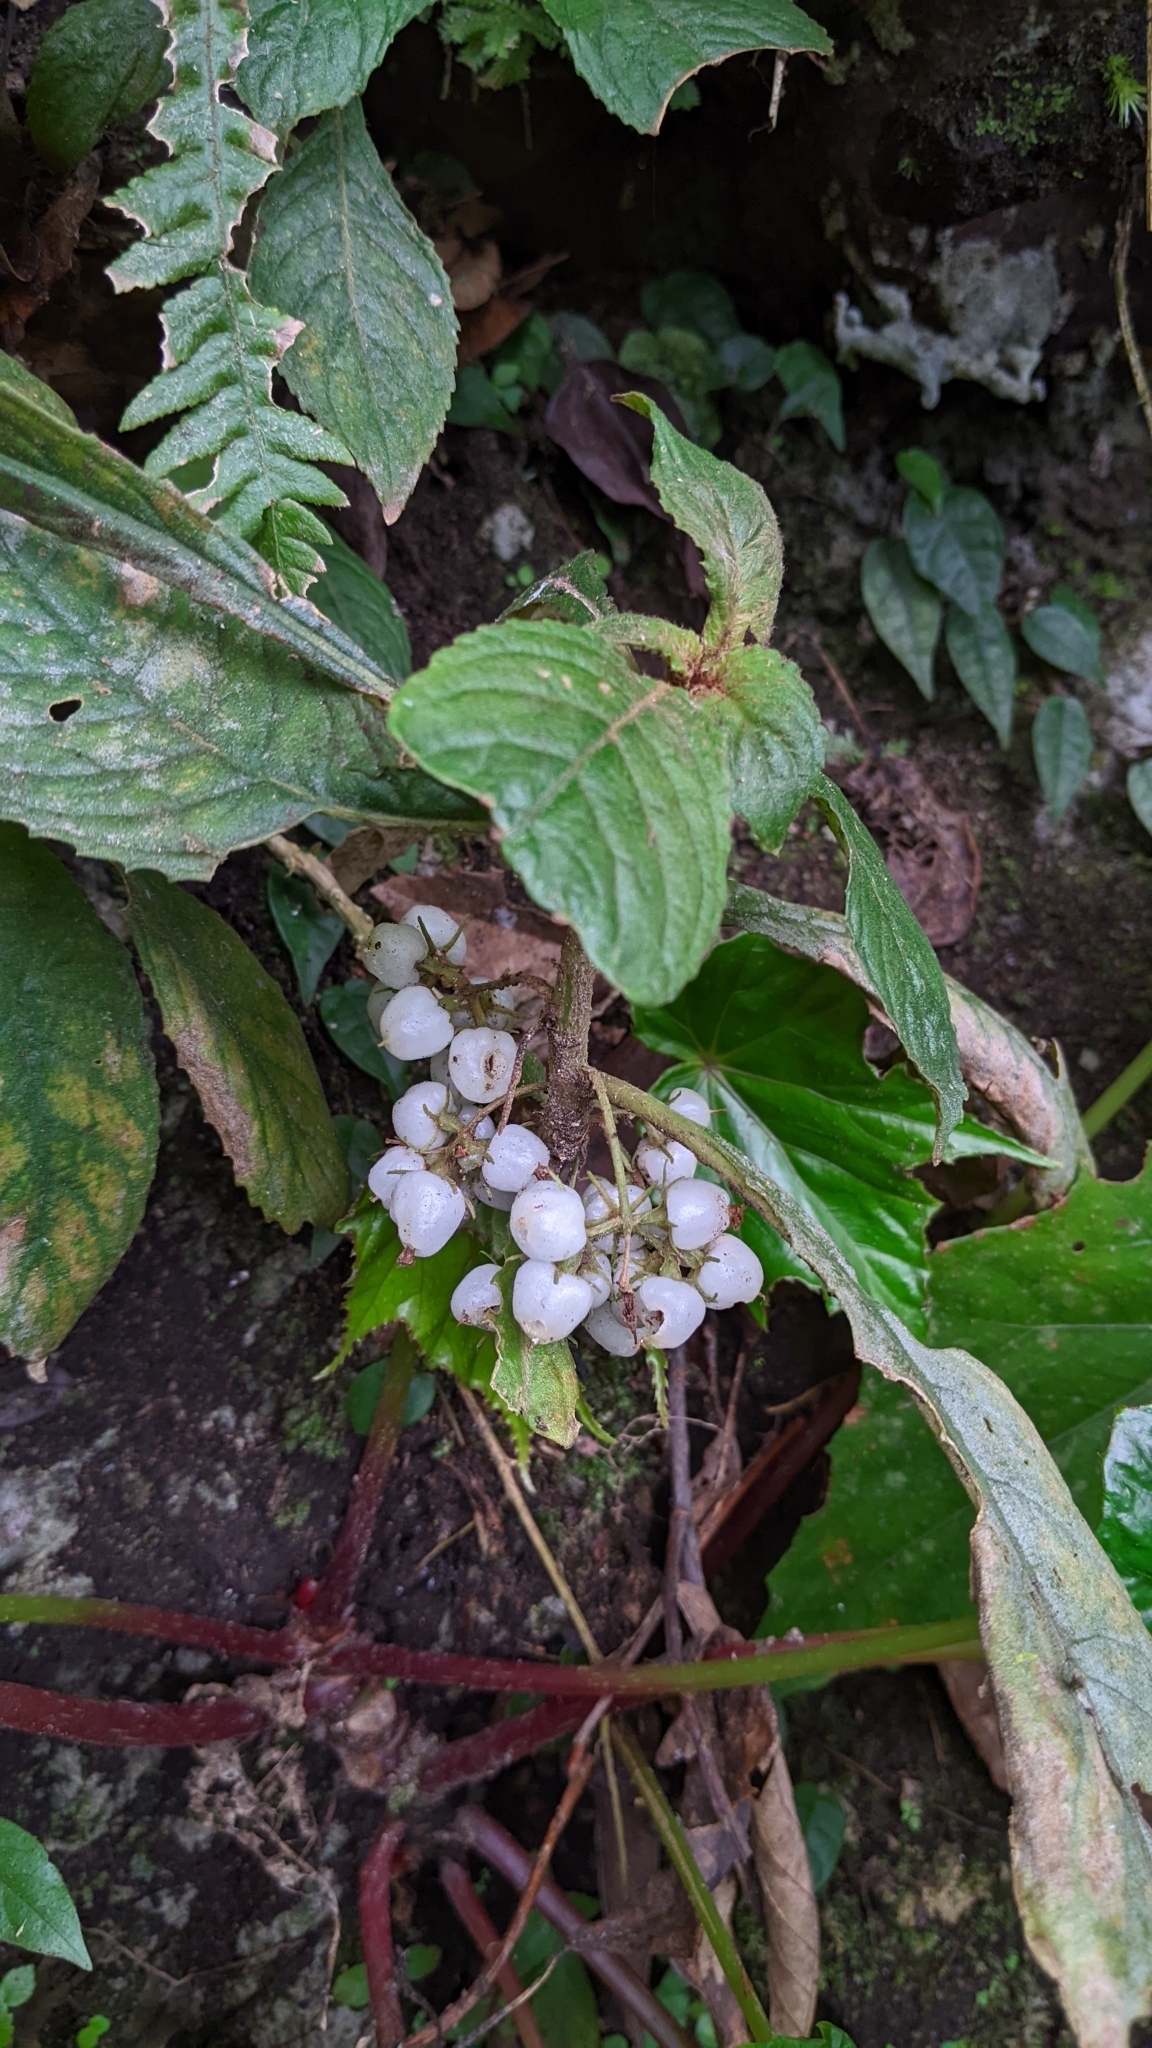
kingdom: Plantae
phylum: Tracheophyta
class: Magnoliopsida
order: Lamiales
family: Gesneriaceae
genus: Rhynchotechum
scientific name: Rhynchotechum discolor
